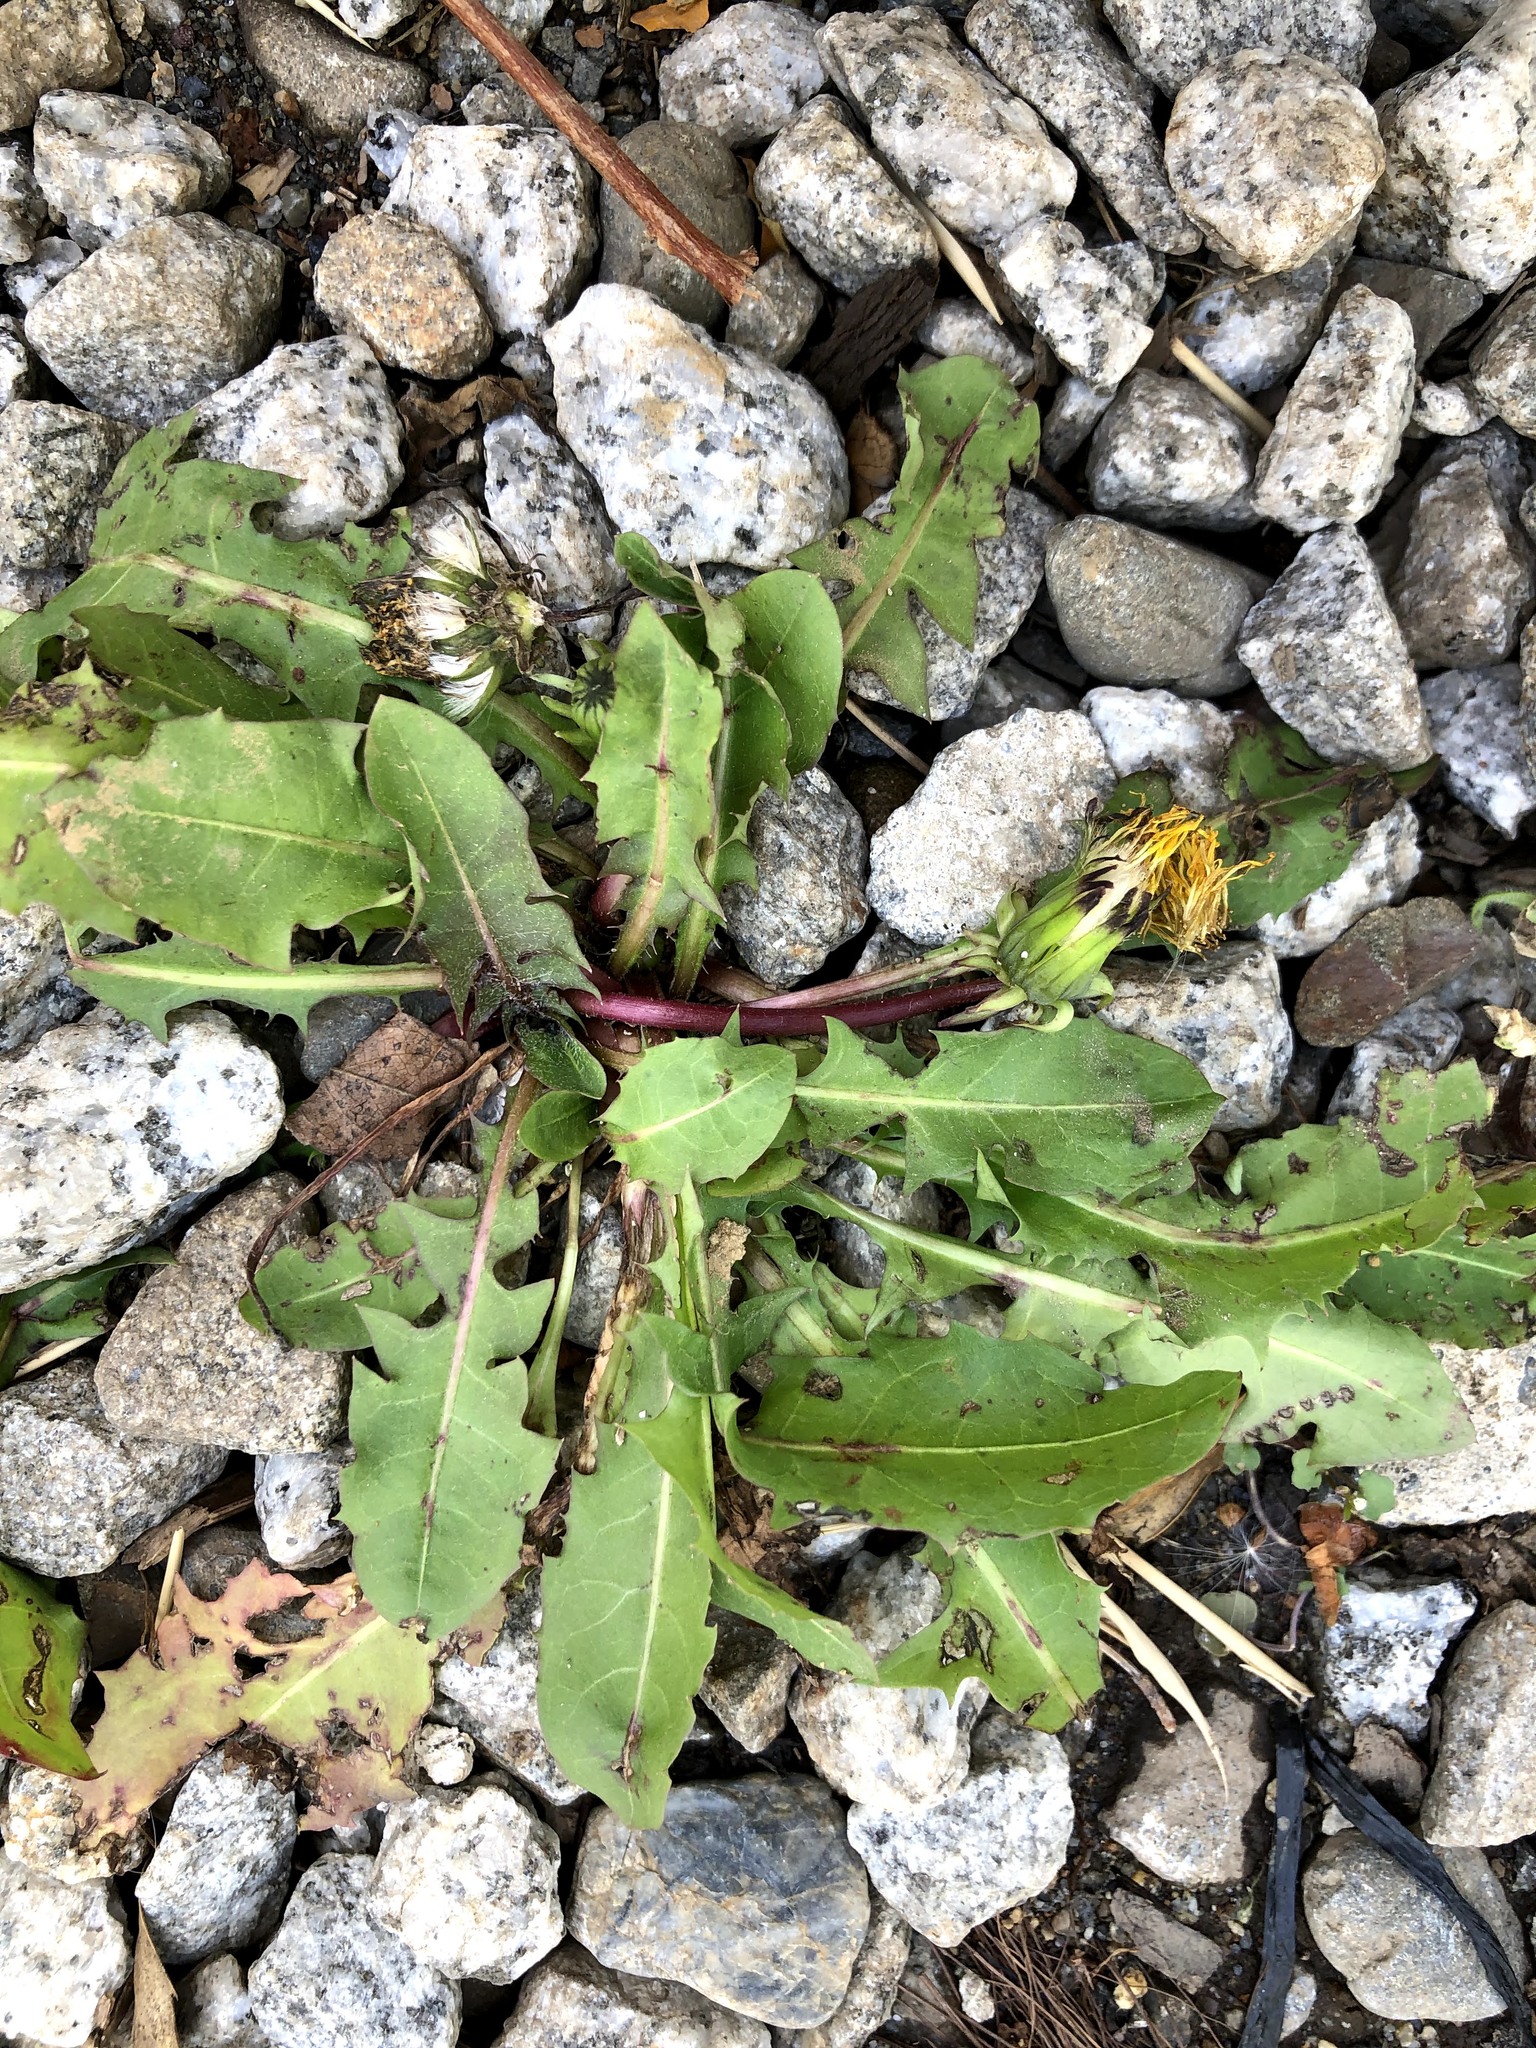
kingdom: Plantae
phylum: Tracheophyta
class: Magnoliopsida
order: Asterales
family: Asteraceae
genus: Taraxacum
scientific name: Taraxacum officinale
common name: Common dandelion
